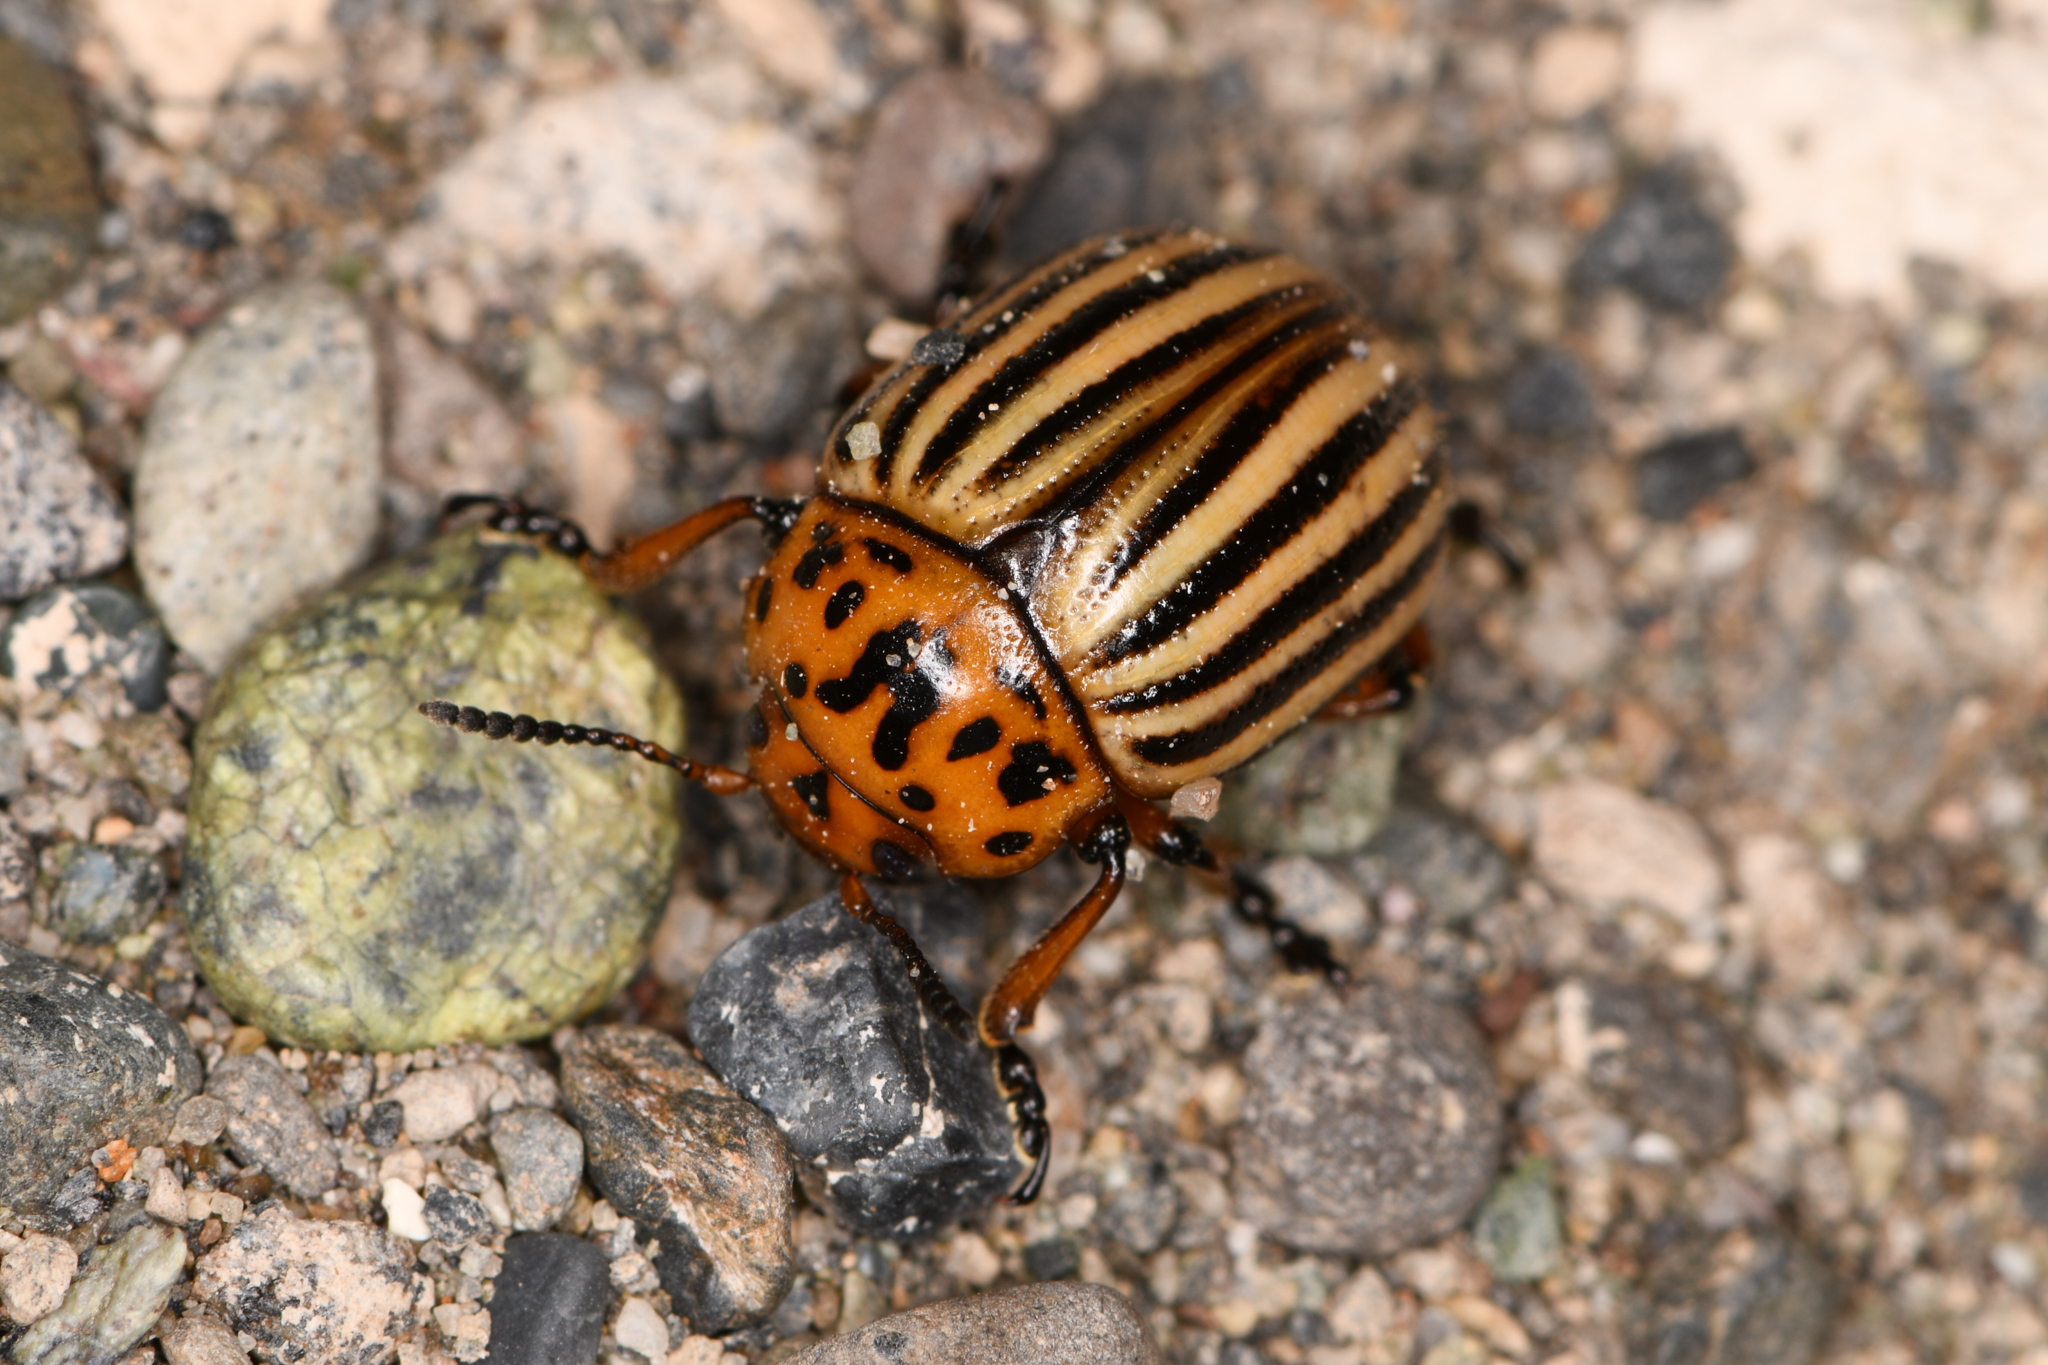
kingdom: Animalia
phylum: Arthropoda
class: Insecta
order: Coleoptera
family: Chrysomelidae
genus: Leptinotarsa
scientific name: Leptinotarsa decemlineata
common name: Colorado potato beetle
